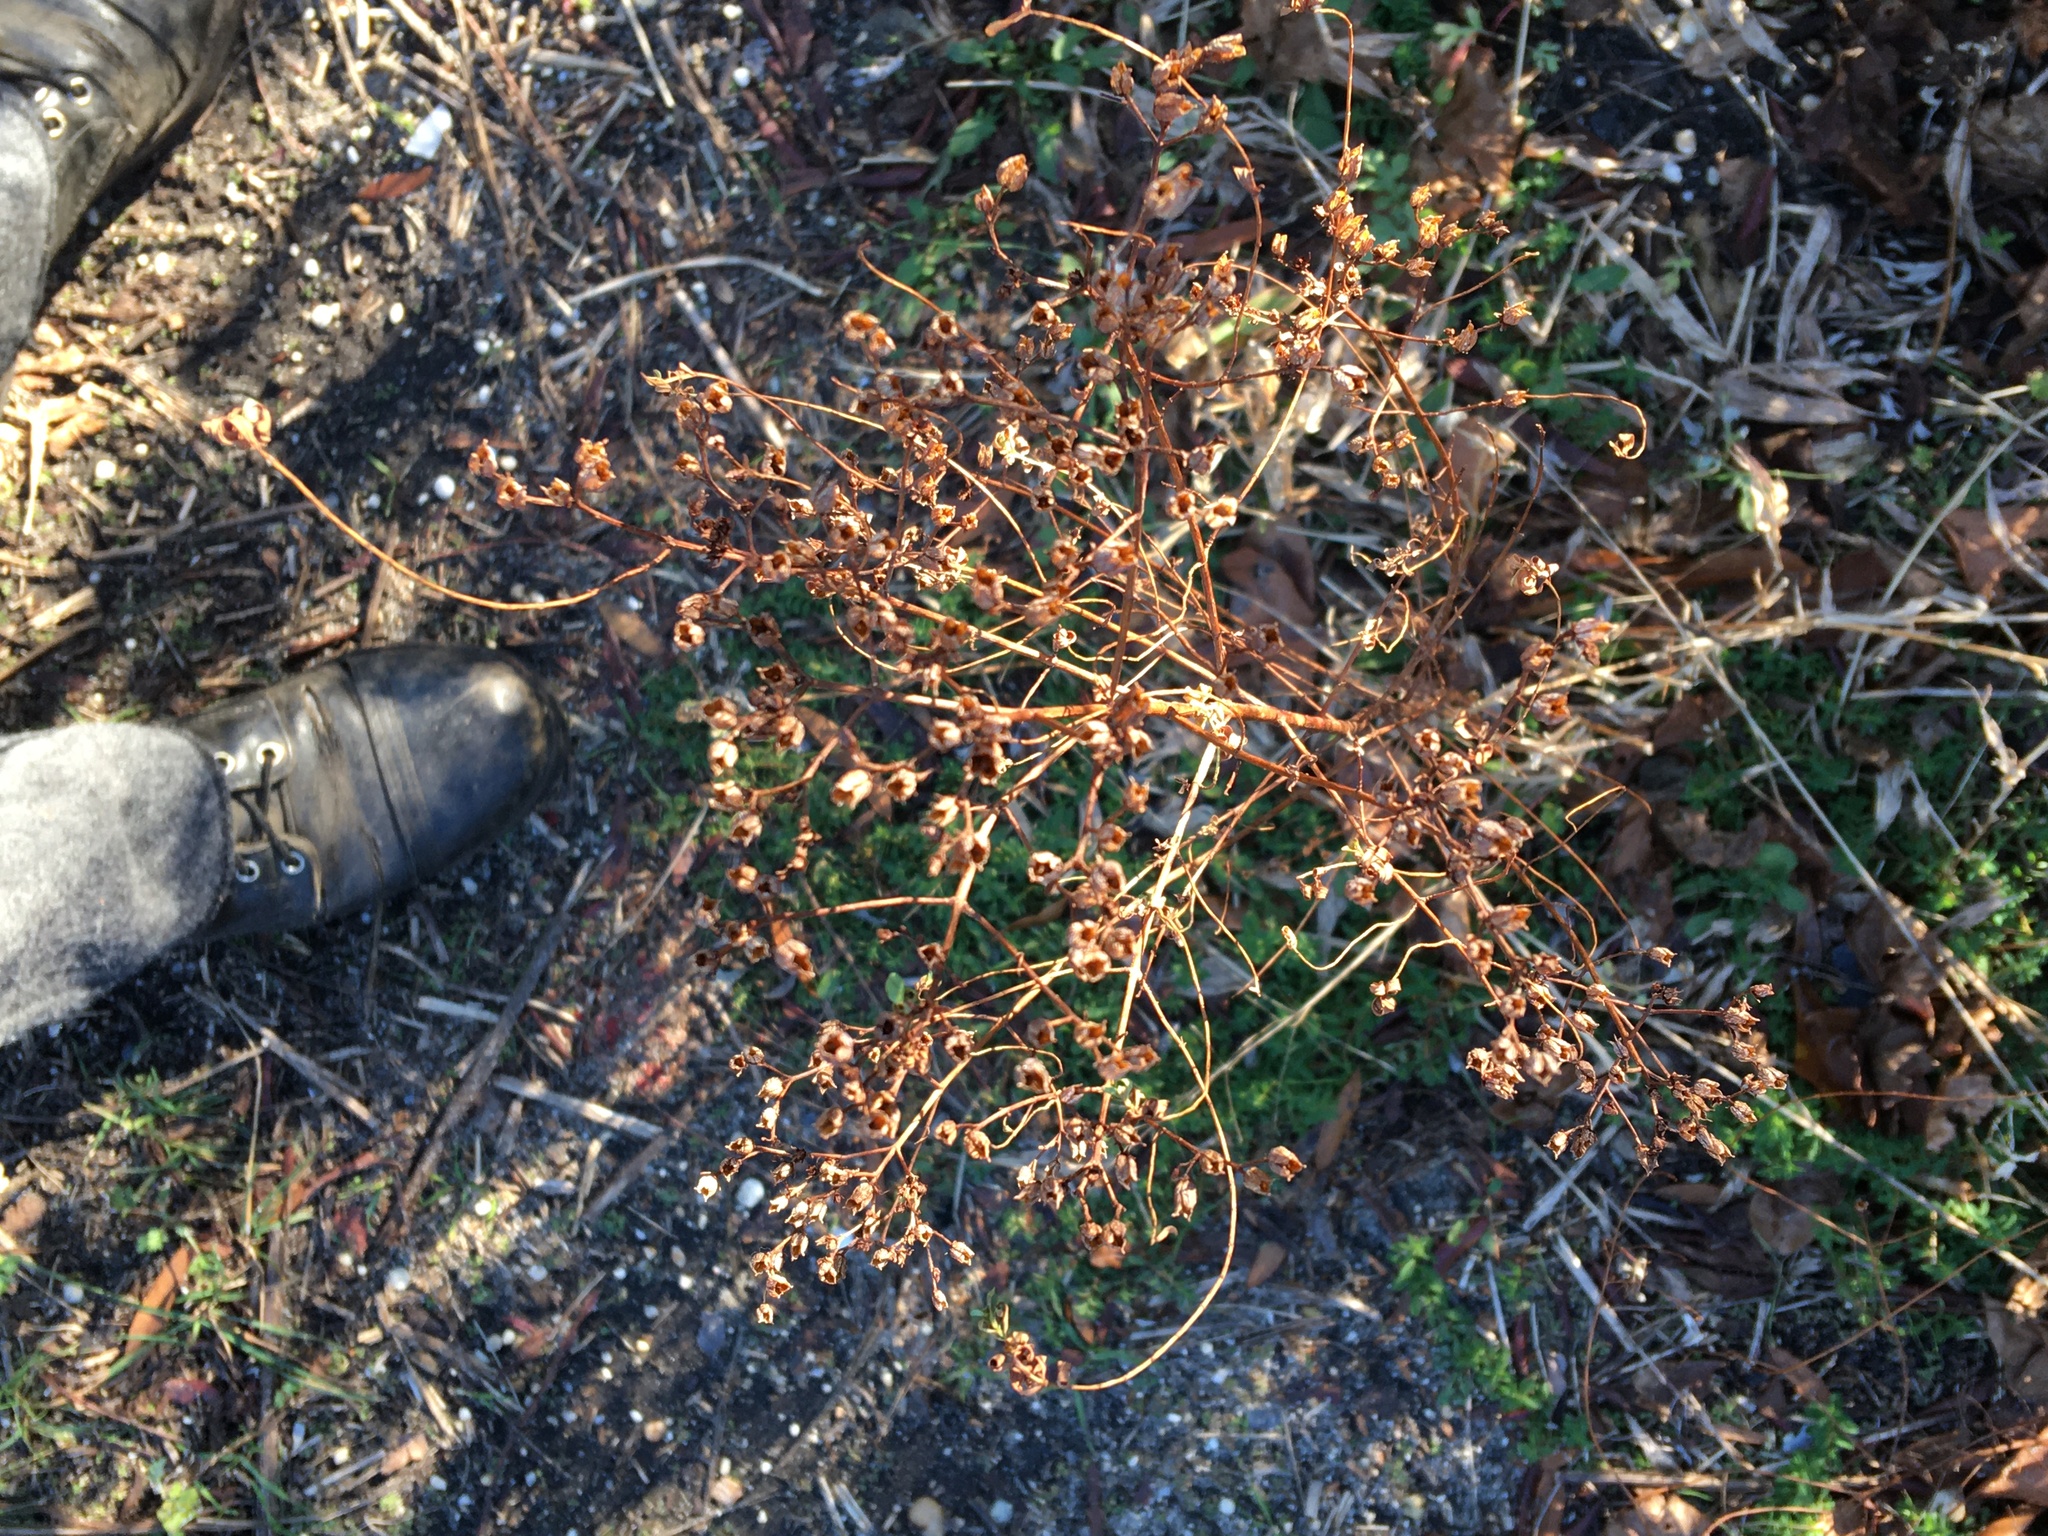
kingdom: Plantae
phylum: Tracheophyta
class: Magnoliopsida
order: Malpighiales
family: Hypericaceae
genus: Hypericum
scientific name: Hypericum perforatum
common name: Common st. johnswort
